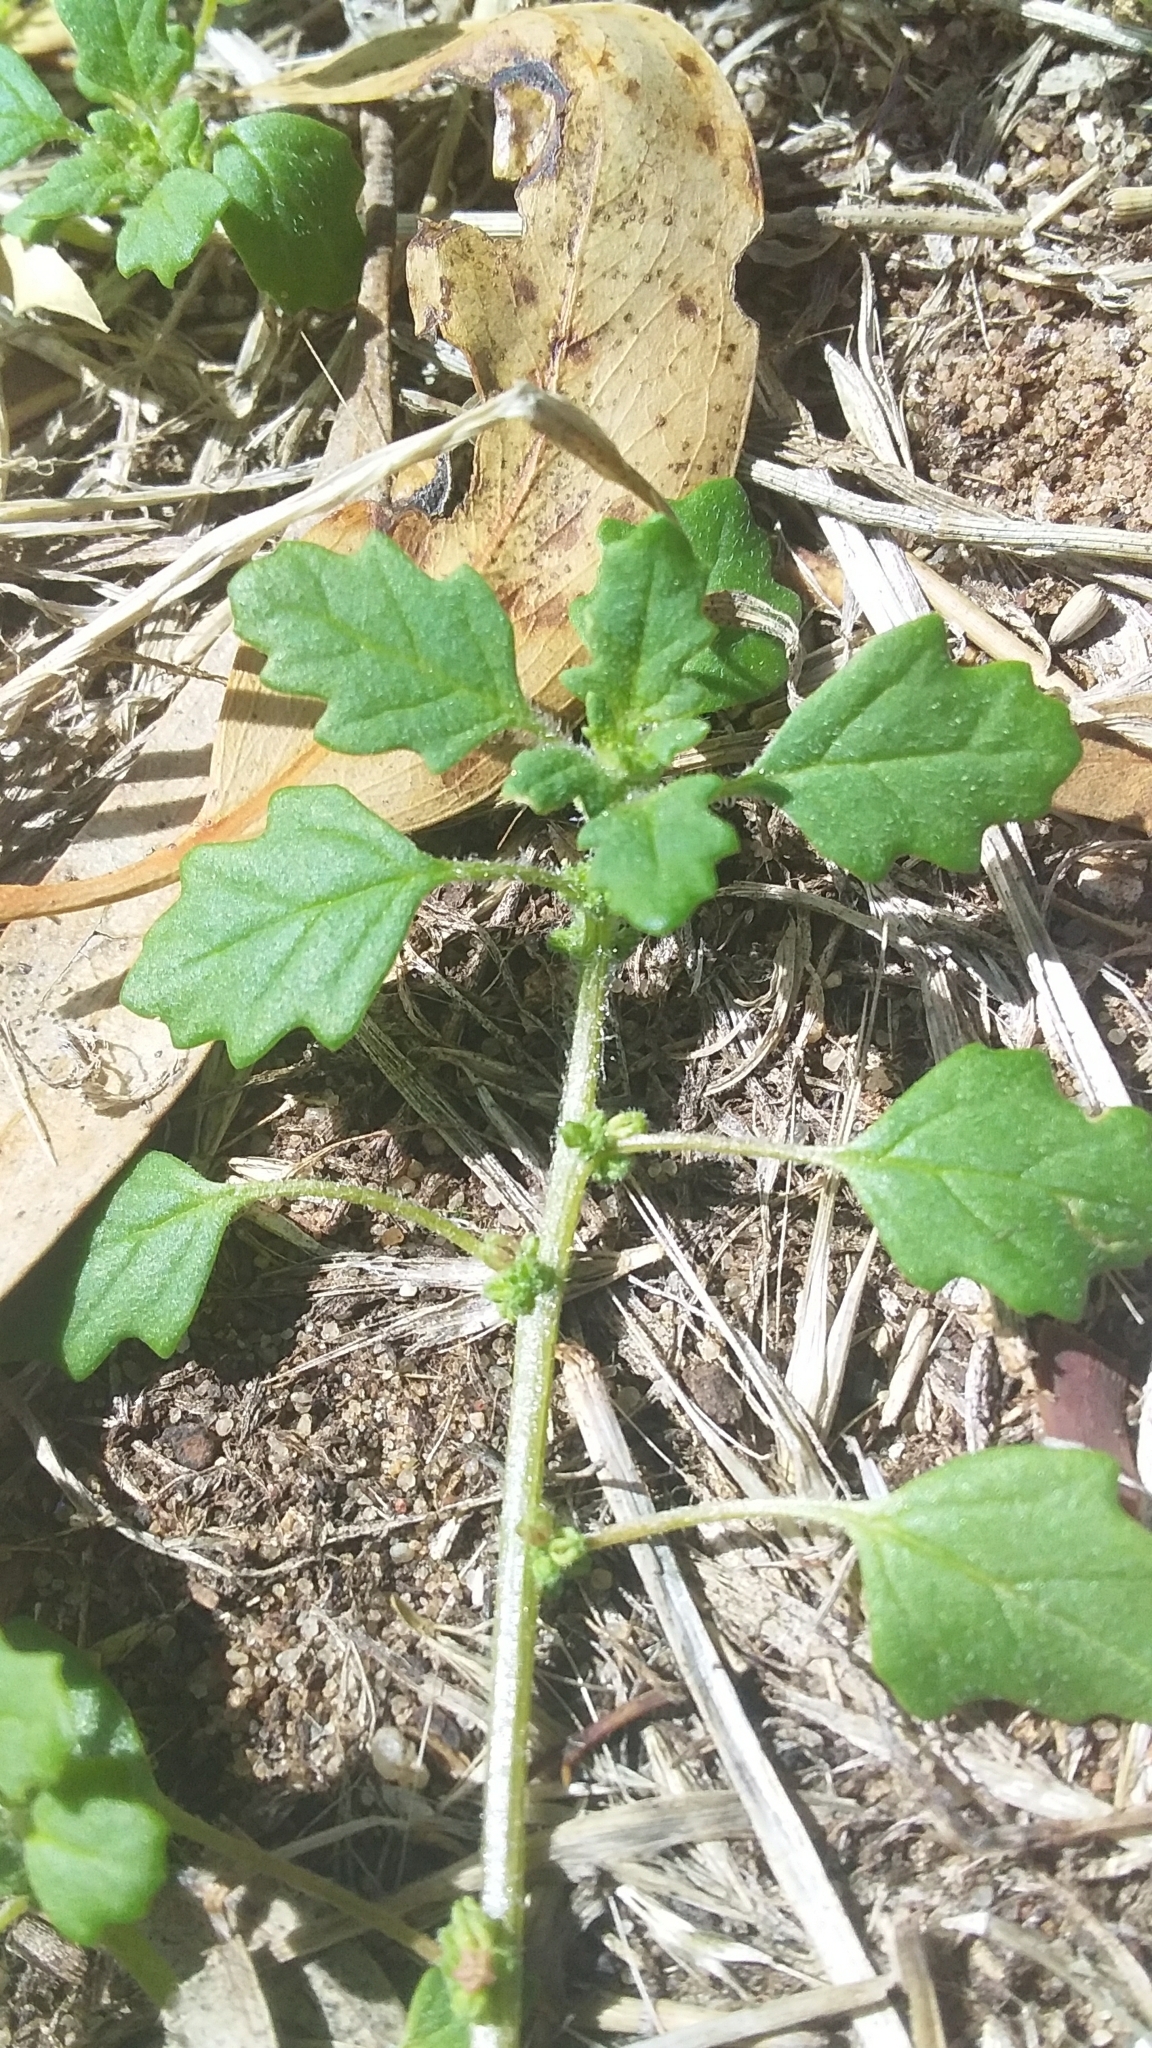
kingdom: Plantae
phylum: Tracheophyta
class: Magnoliopsida
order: Caryophyllales
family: Amaranthaceae
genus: Dysphania
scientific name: Dysphania pumilio
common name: Clammy goosefoot
